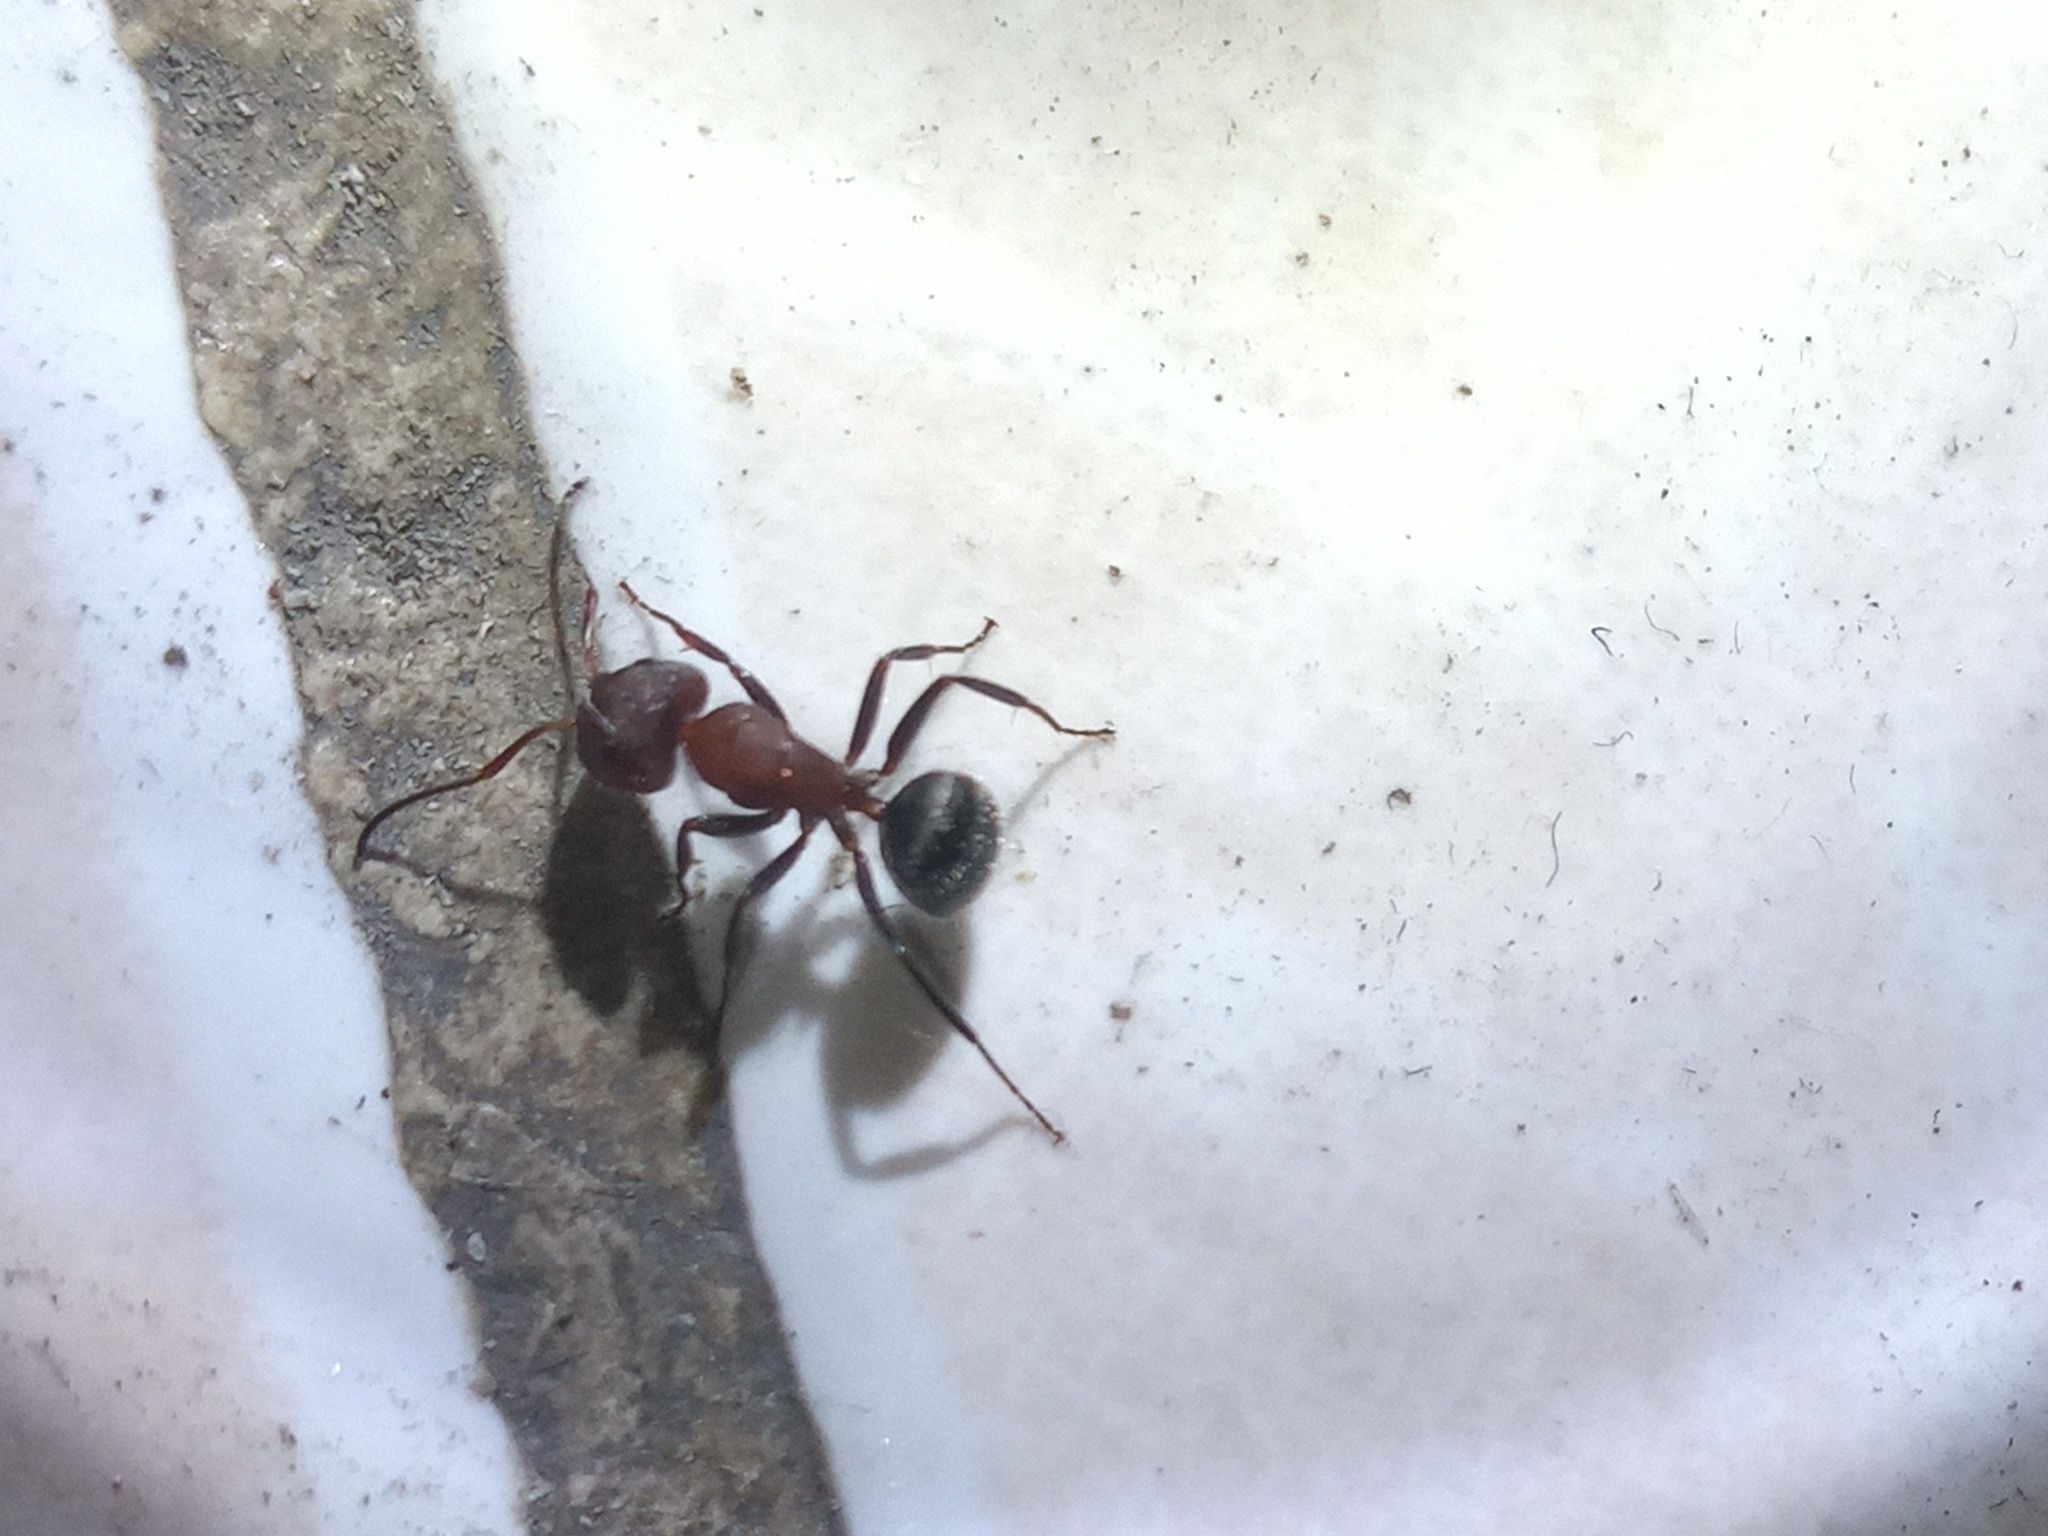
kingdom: Animalia
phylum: Arthropoda
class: Insecta
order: Hymenoptera
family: Formicidae
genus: Camponotus
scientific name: Camponotus planatus
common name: Compact carpenter ant
